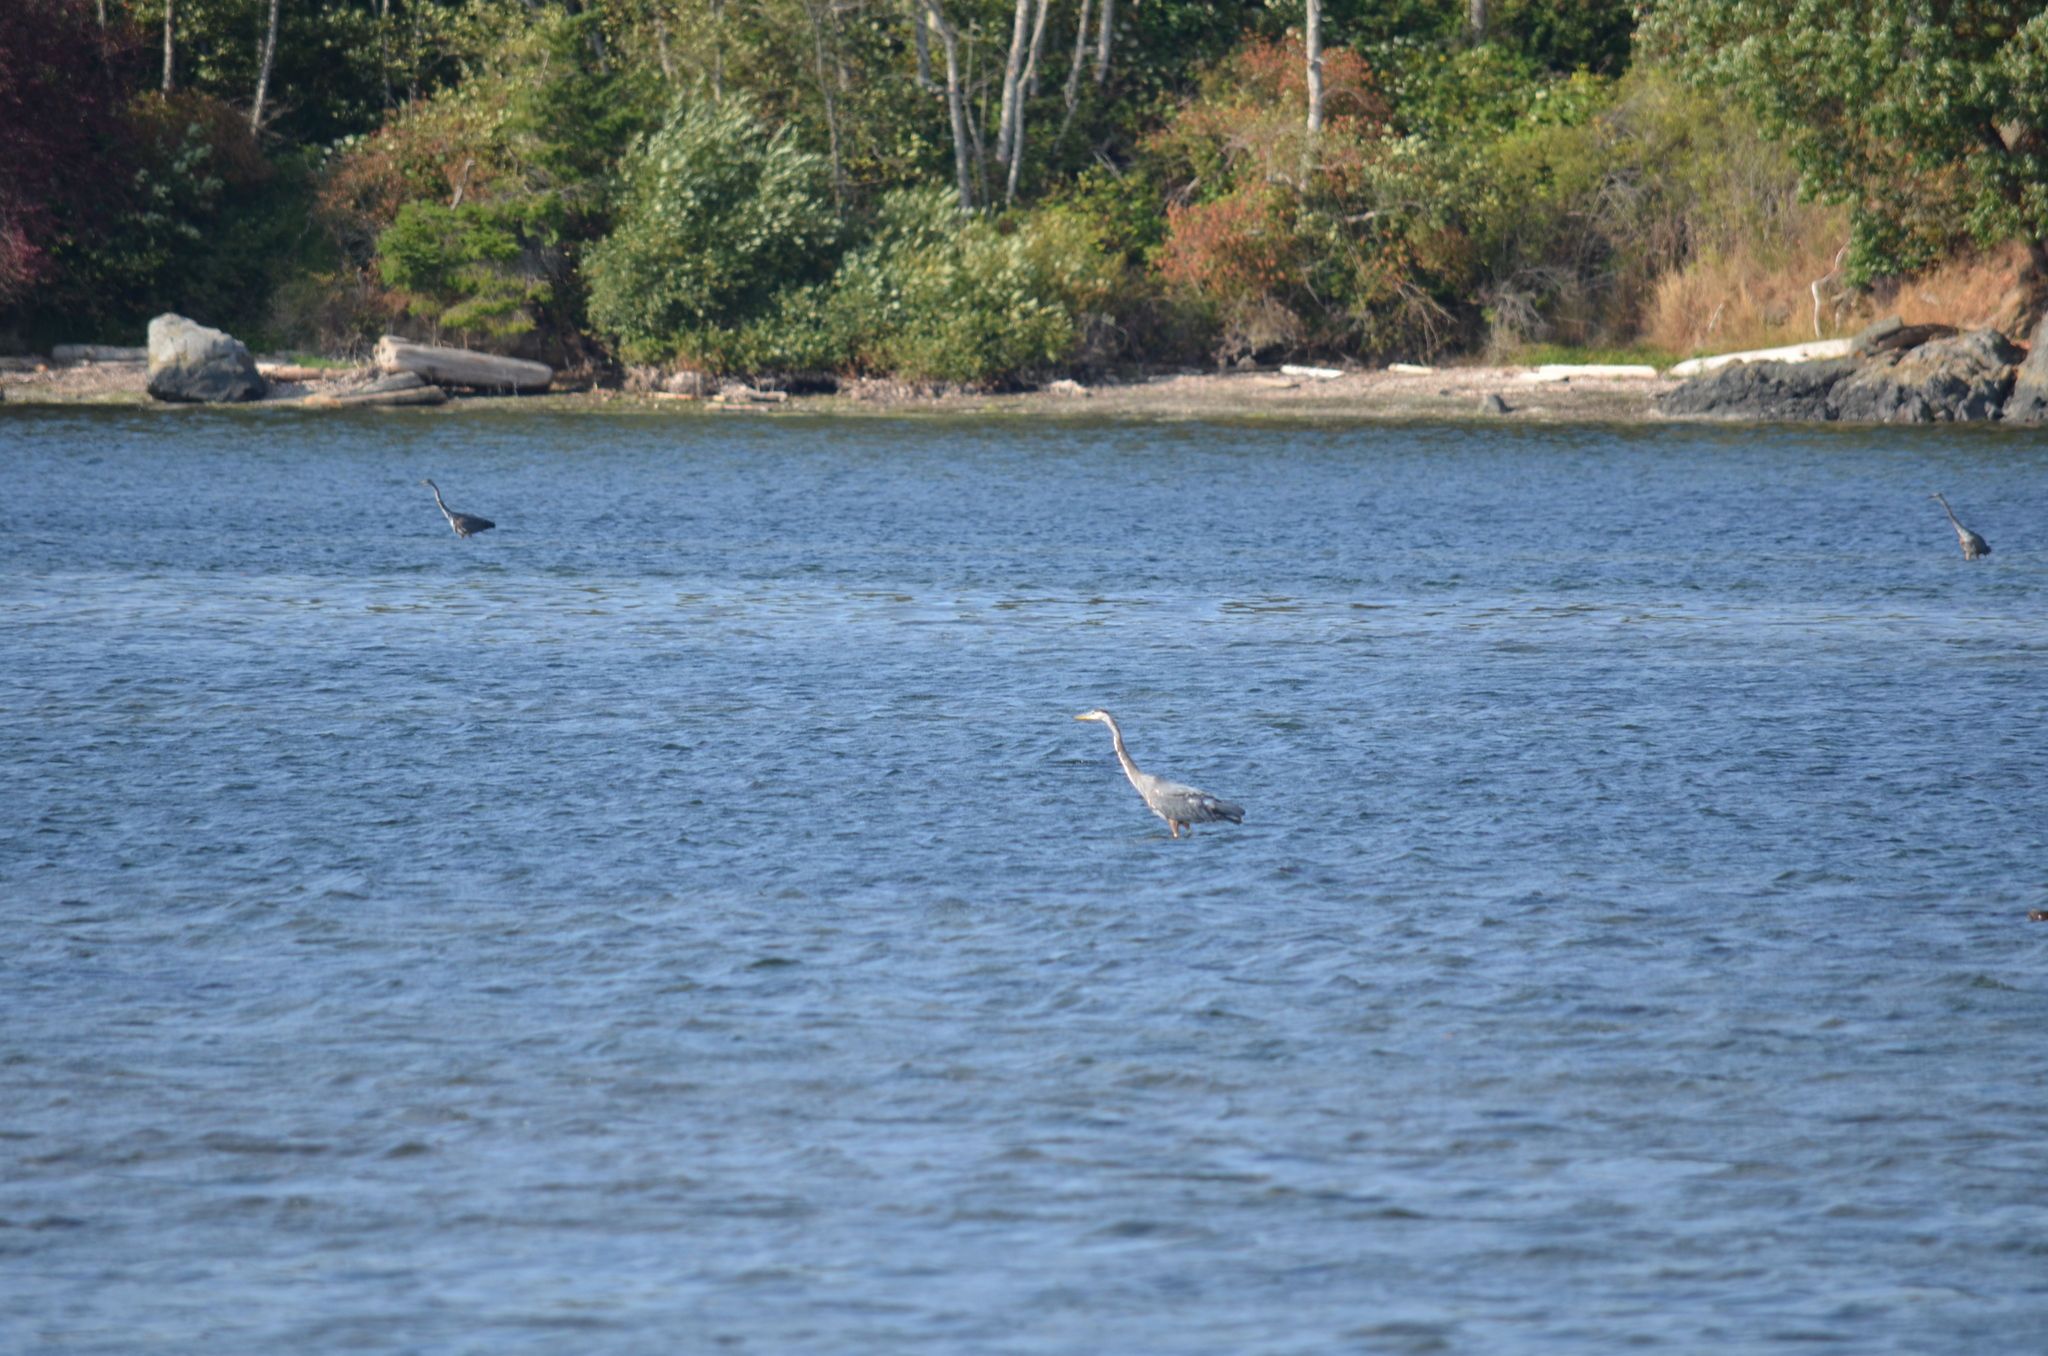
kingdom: Animalia
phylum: Chordata
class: Aves
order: Pelecaniformes
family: Ardeidae
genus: Ardea
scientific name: Ardea herodias
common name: Great blue heron
